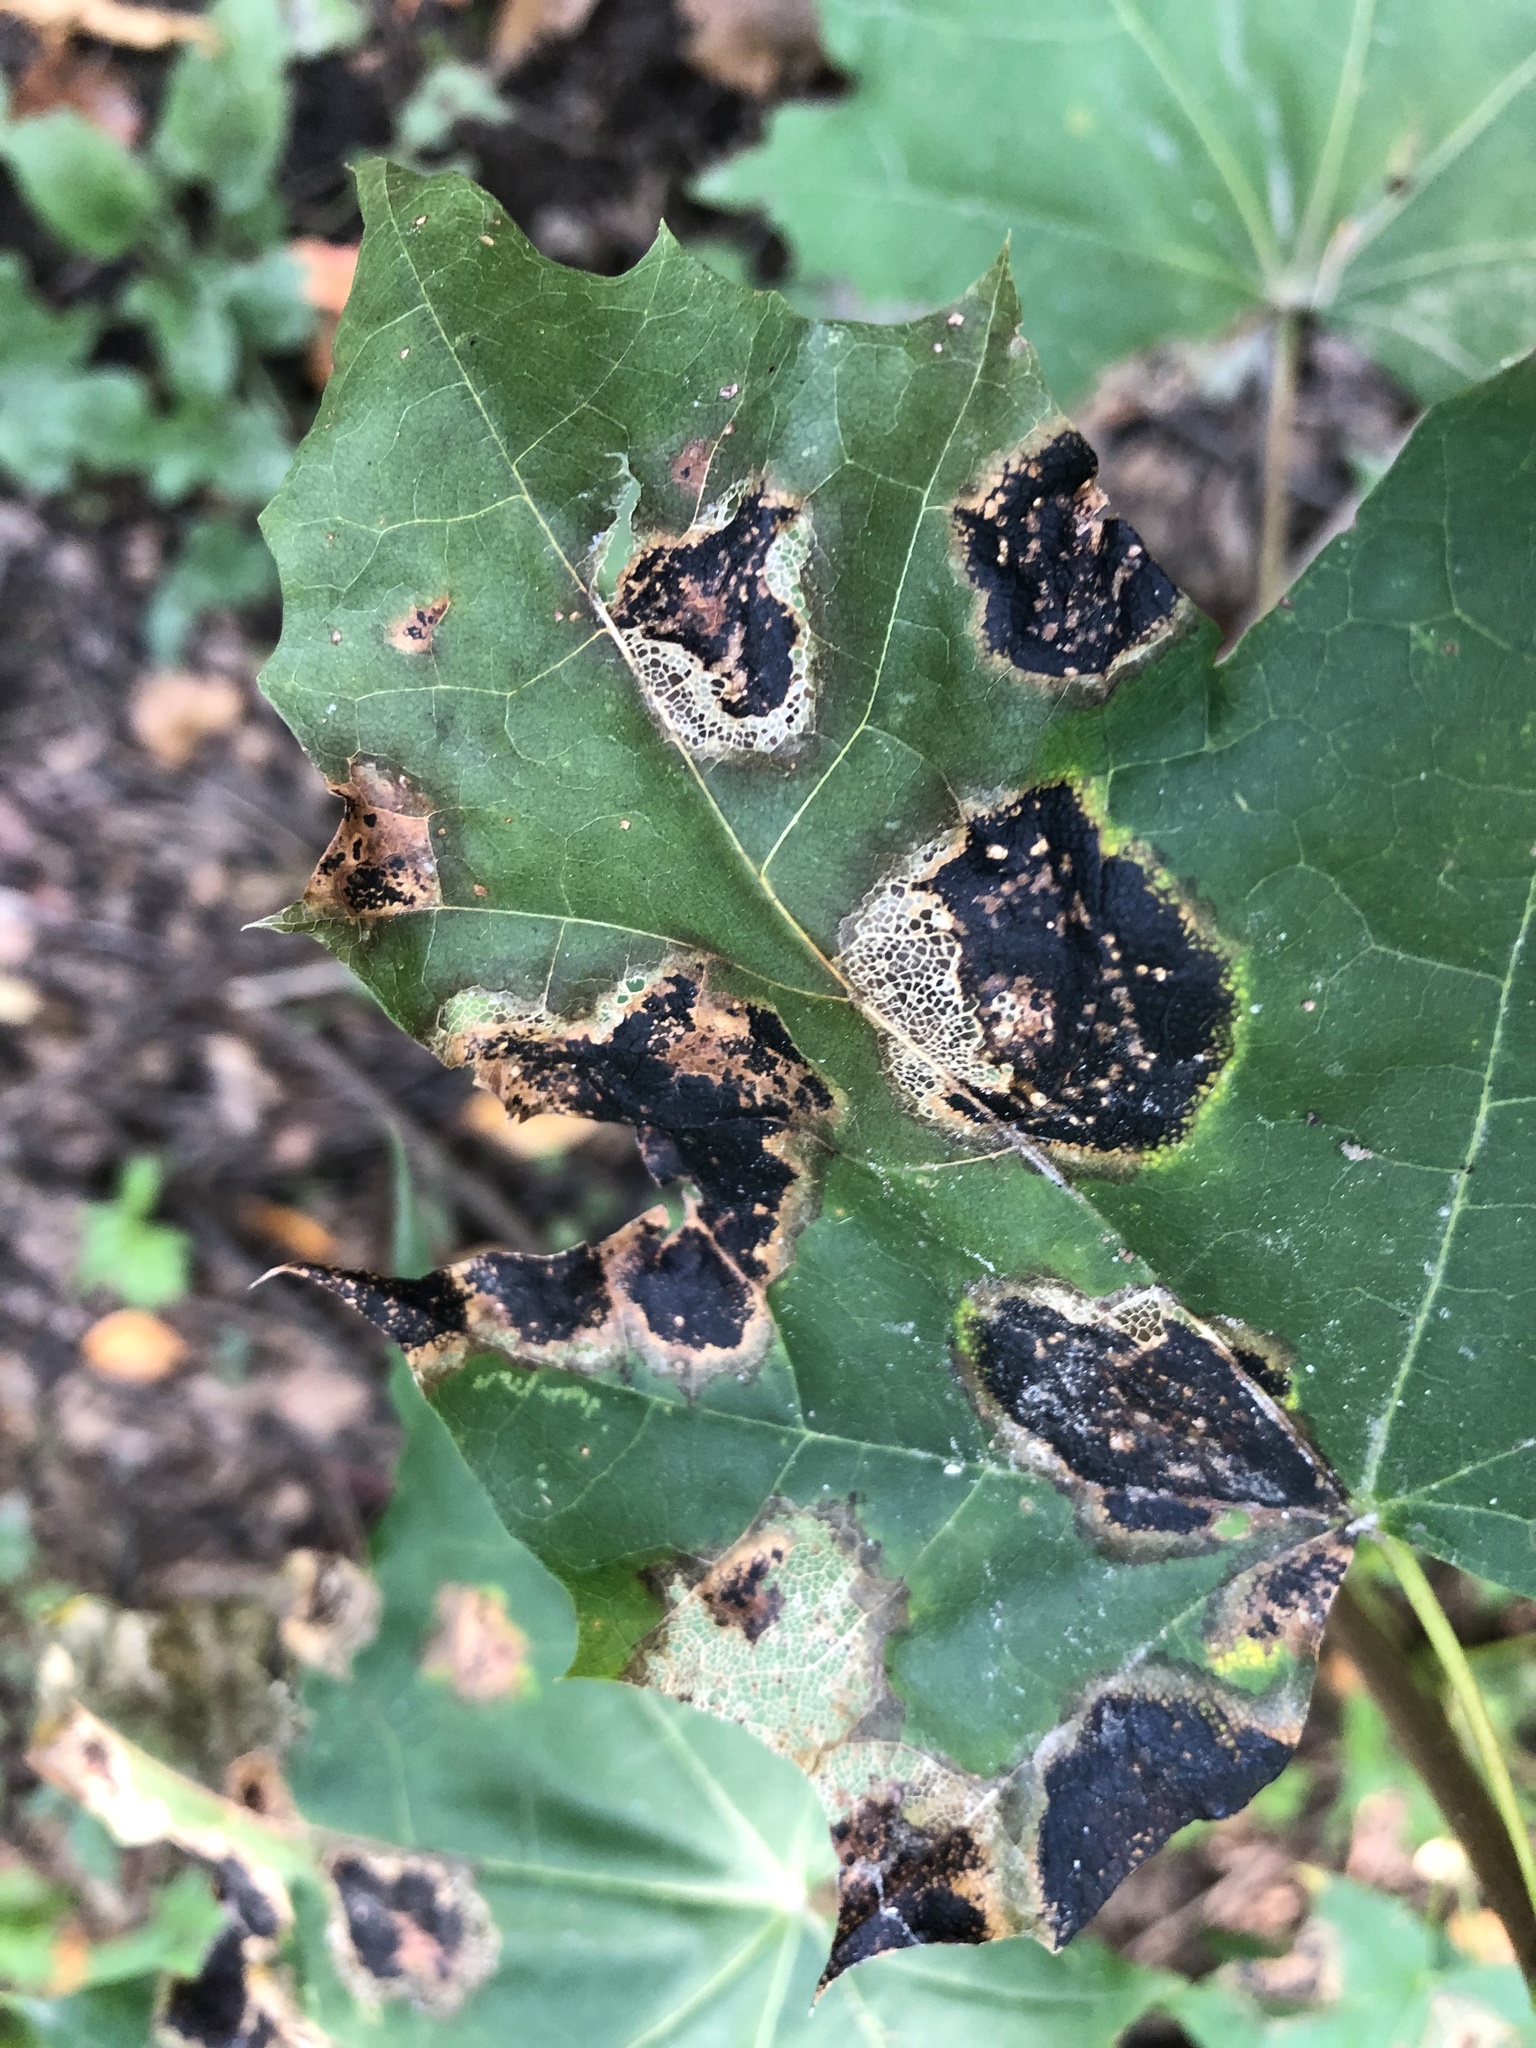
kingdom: Fungi
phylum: Ascomycota
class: Leotiomycetes
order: Rhytismatales
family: Rhytismataceae
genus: Rhytisma
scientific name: Rhytisma acerinum
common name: European tar spot
